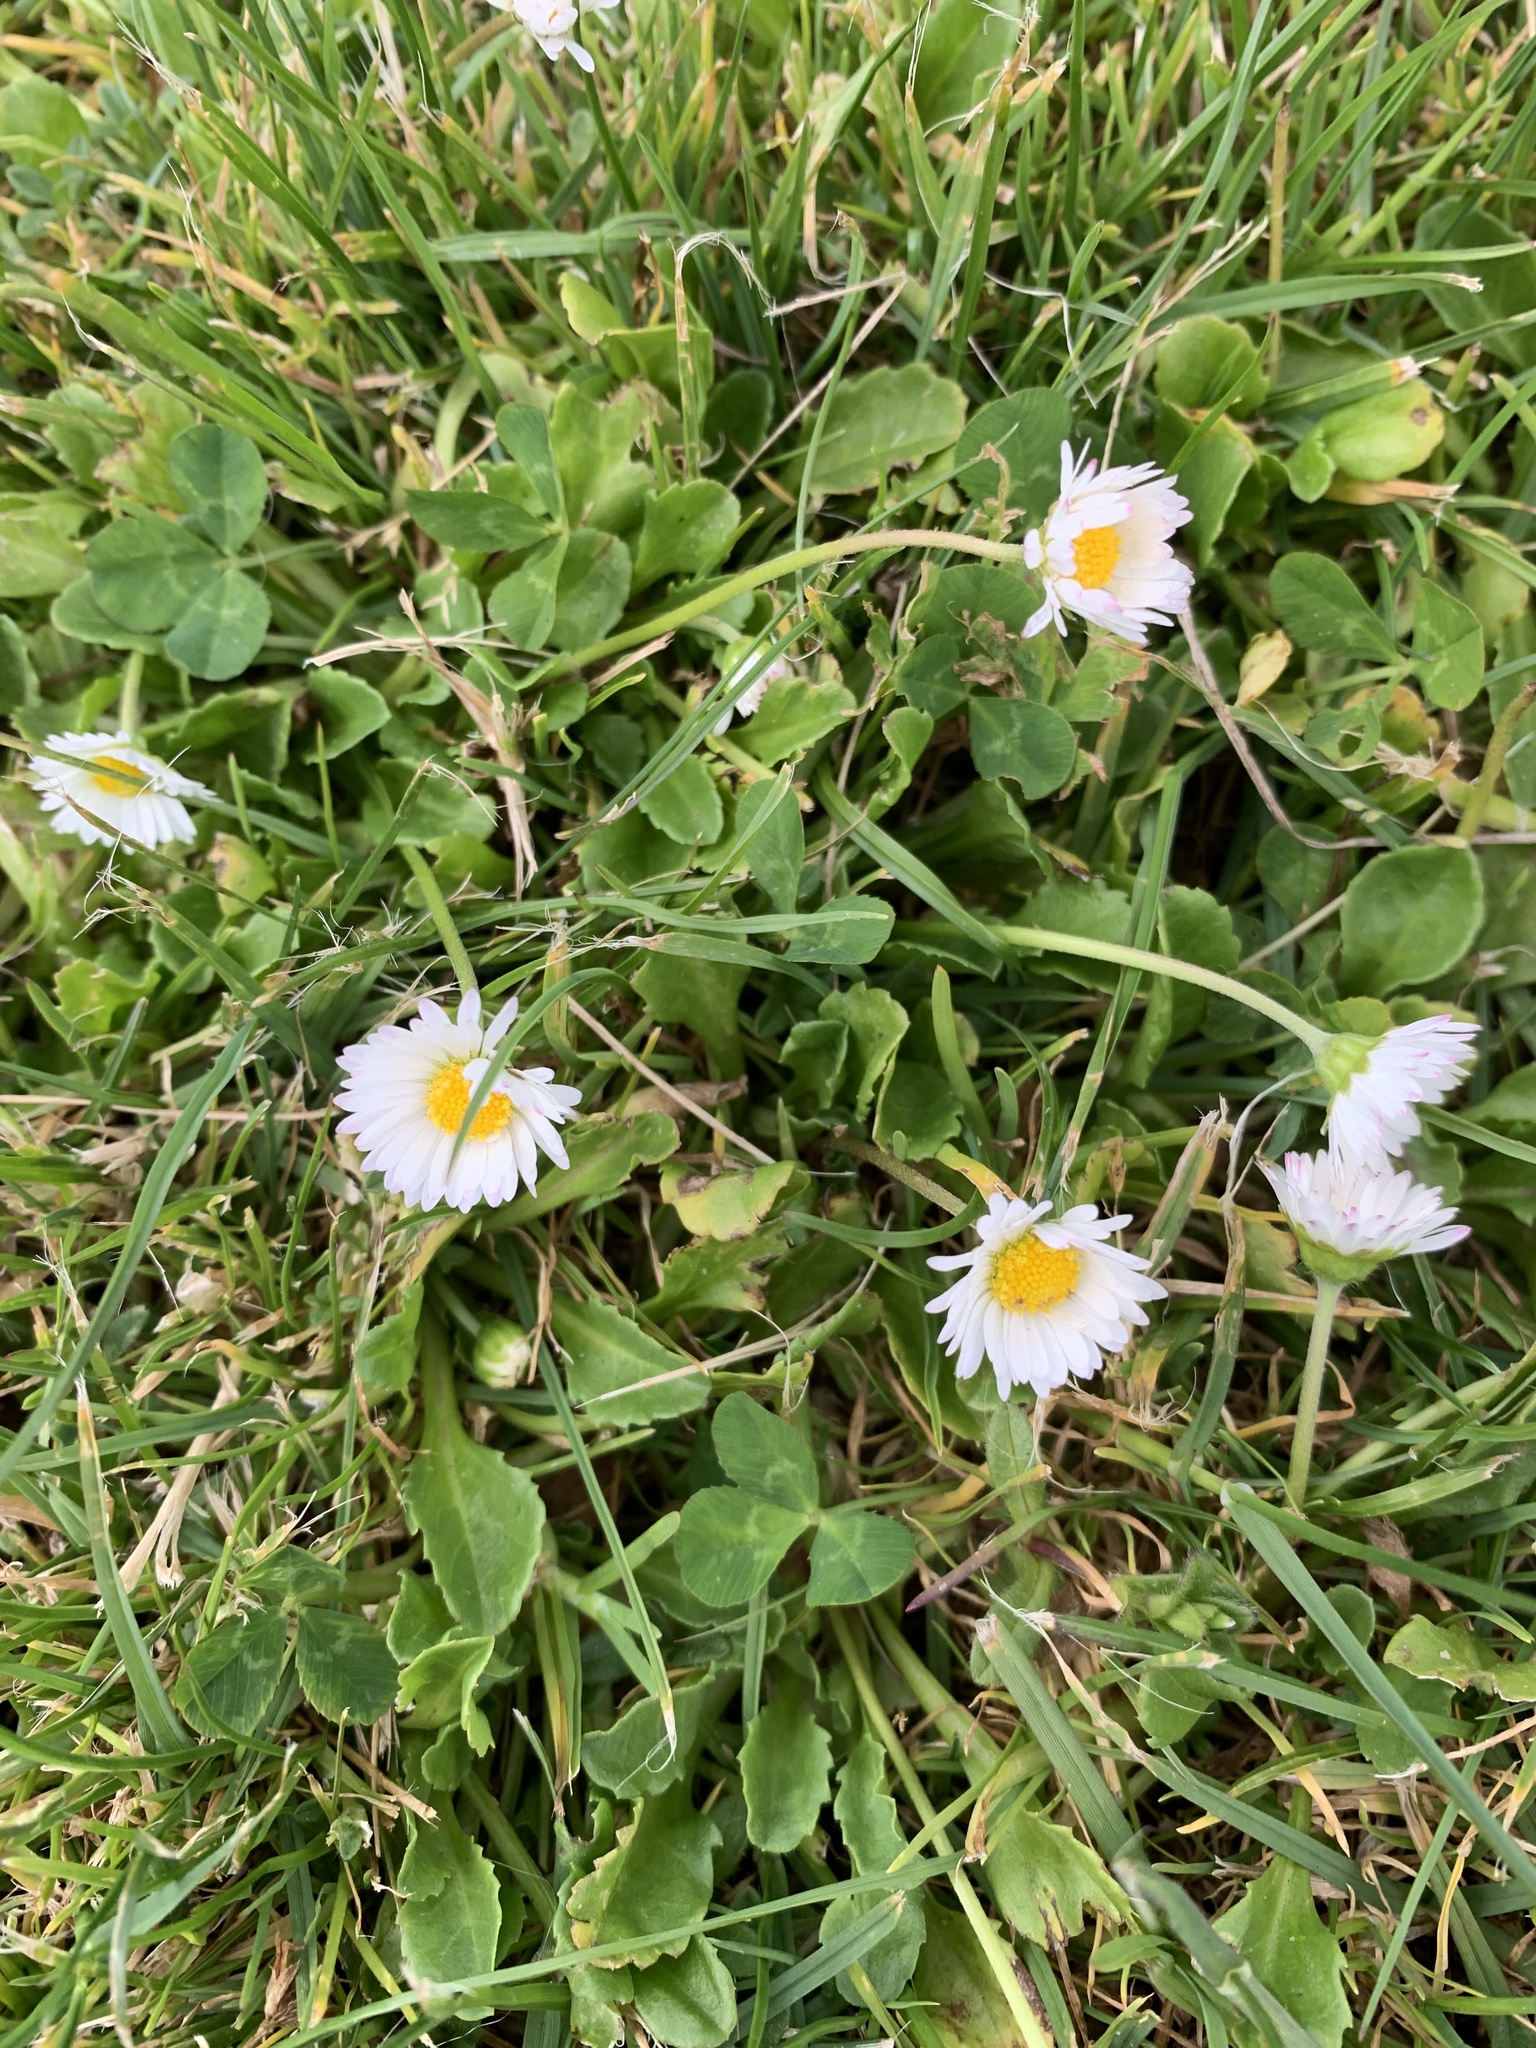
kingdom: Plantae
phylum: Tracheophyta
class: Magnoliopsida
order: Asterales
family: Asteraceae
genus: Bellis
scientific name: Bellis perennis
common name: Lawndaisy
